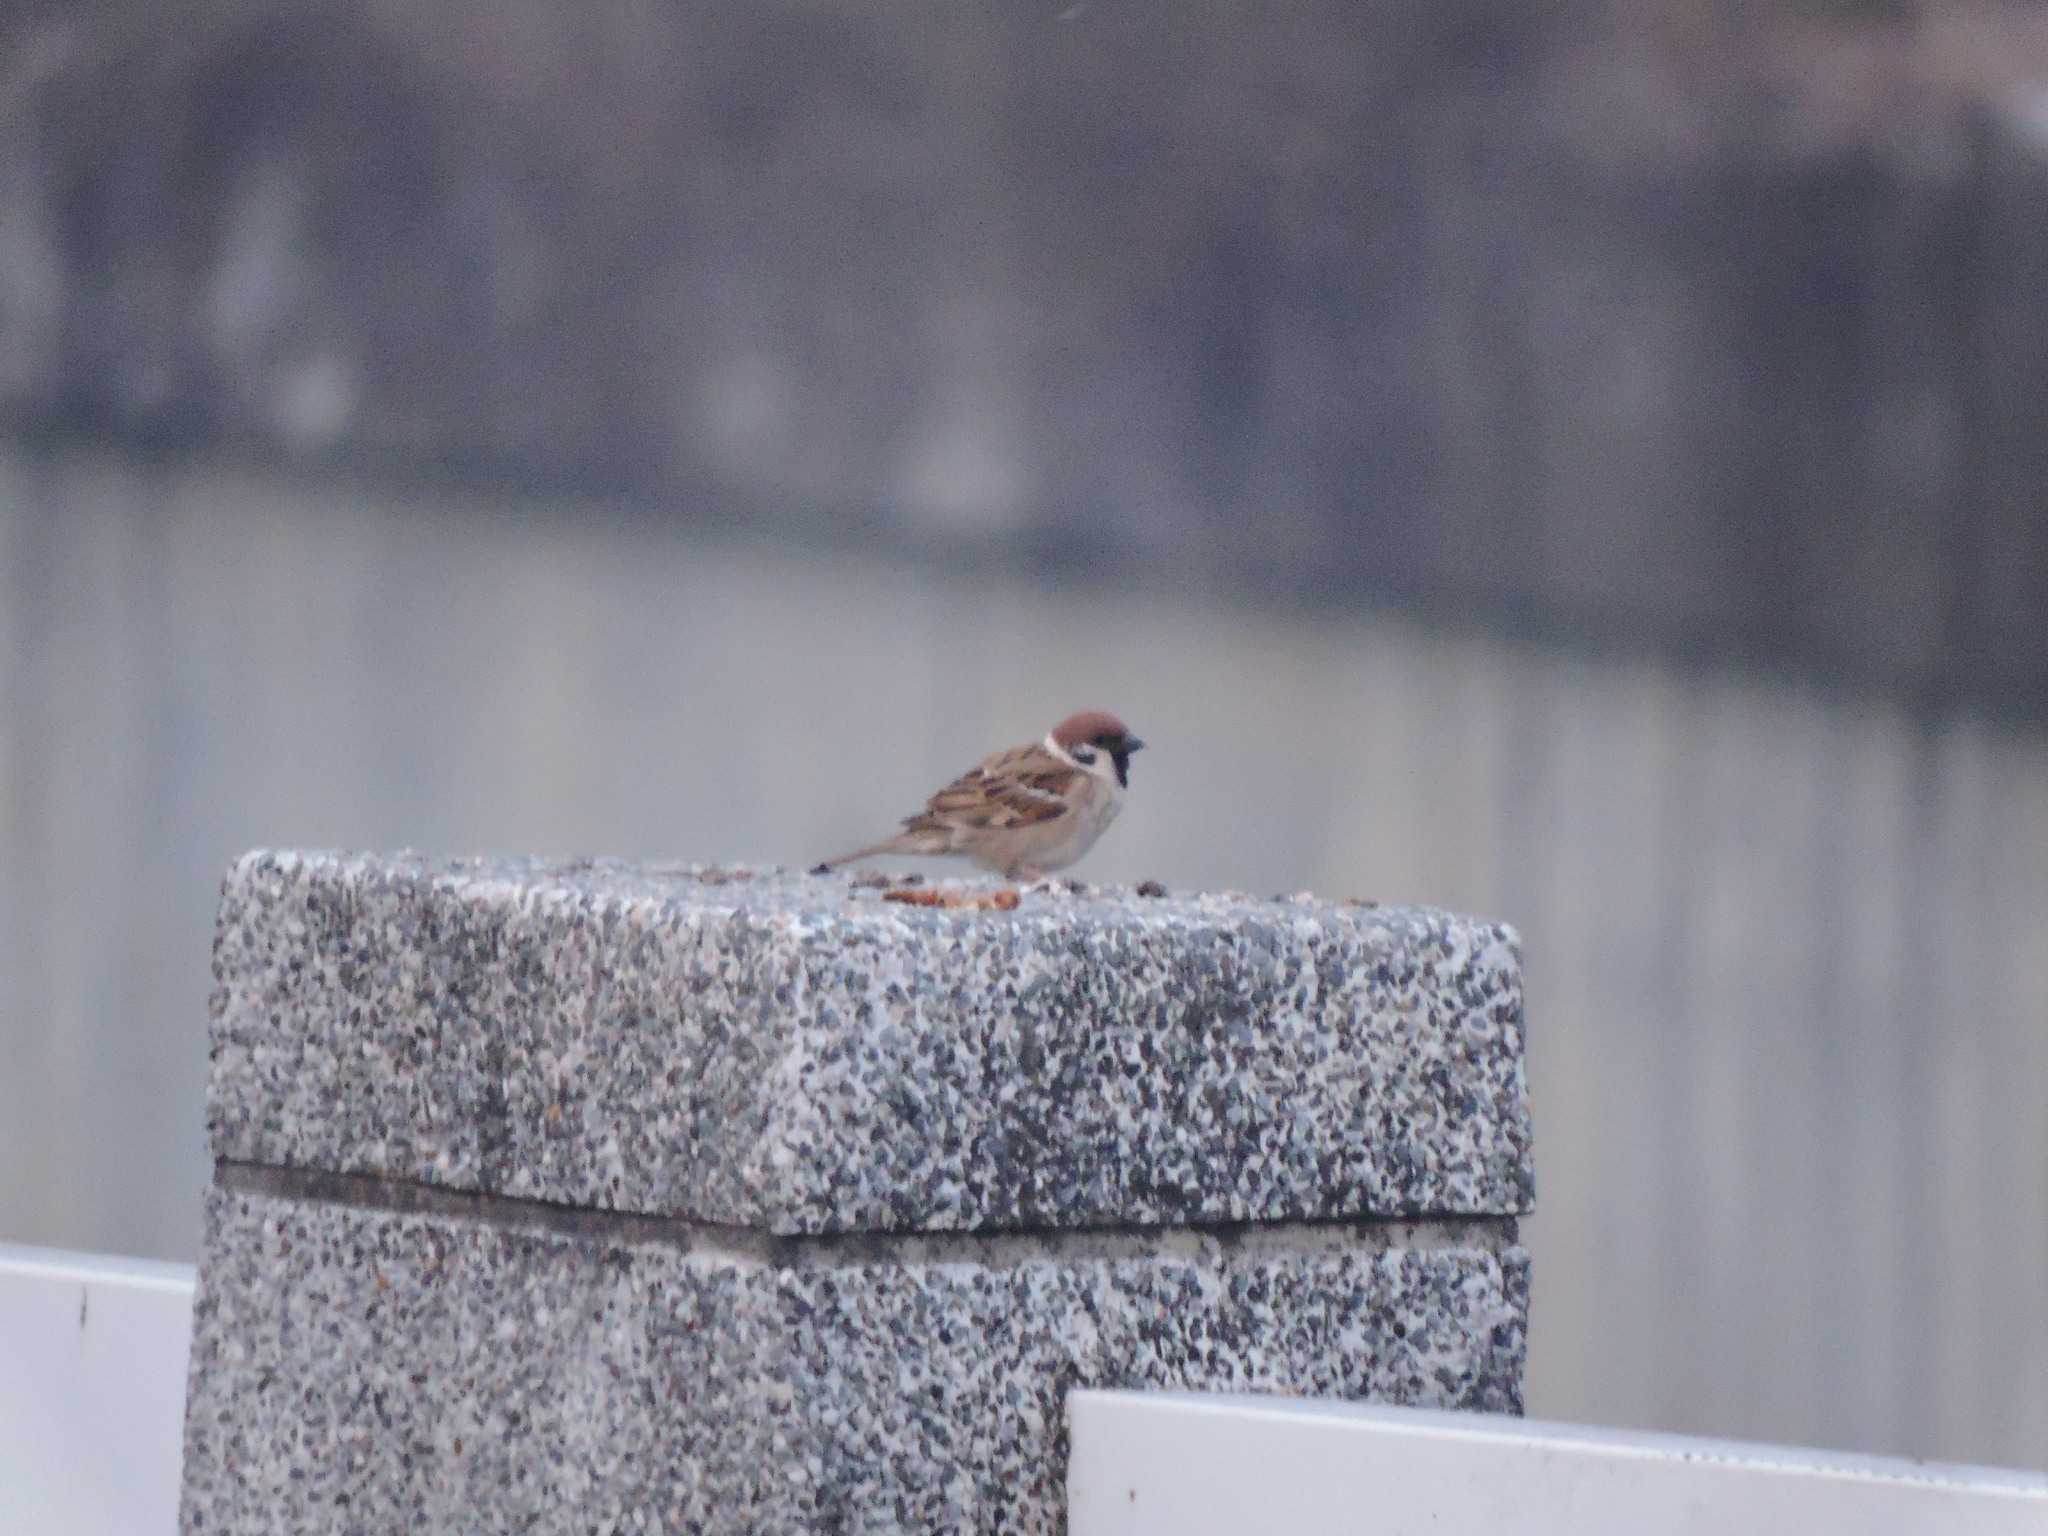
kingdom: Animalia
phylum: Chordata
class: Aves
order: Passeriformes
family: Passeridae
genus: Passer
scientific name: Passer montanus
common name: Eurasian tree sparrow
